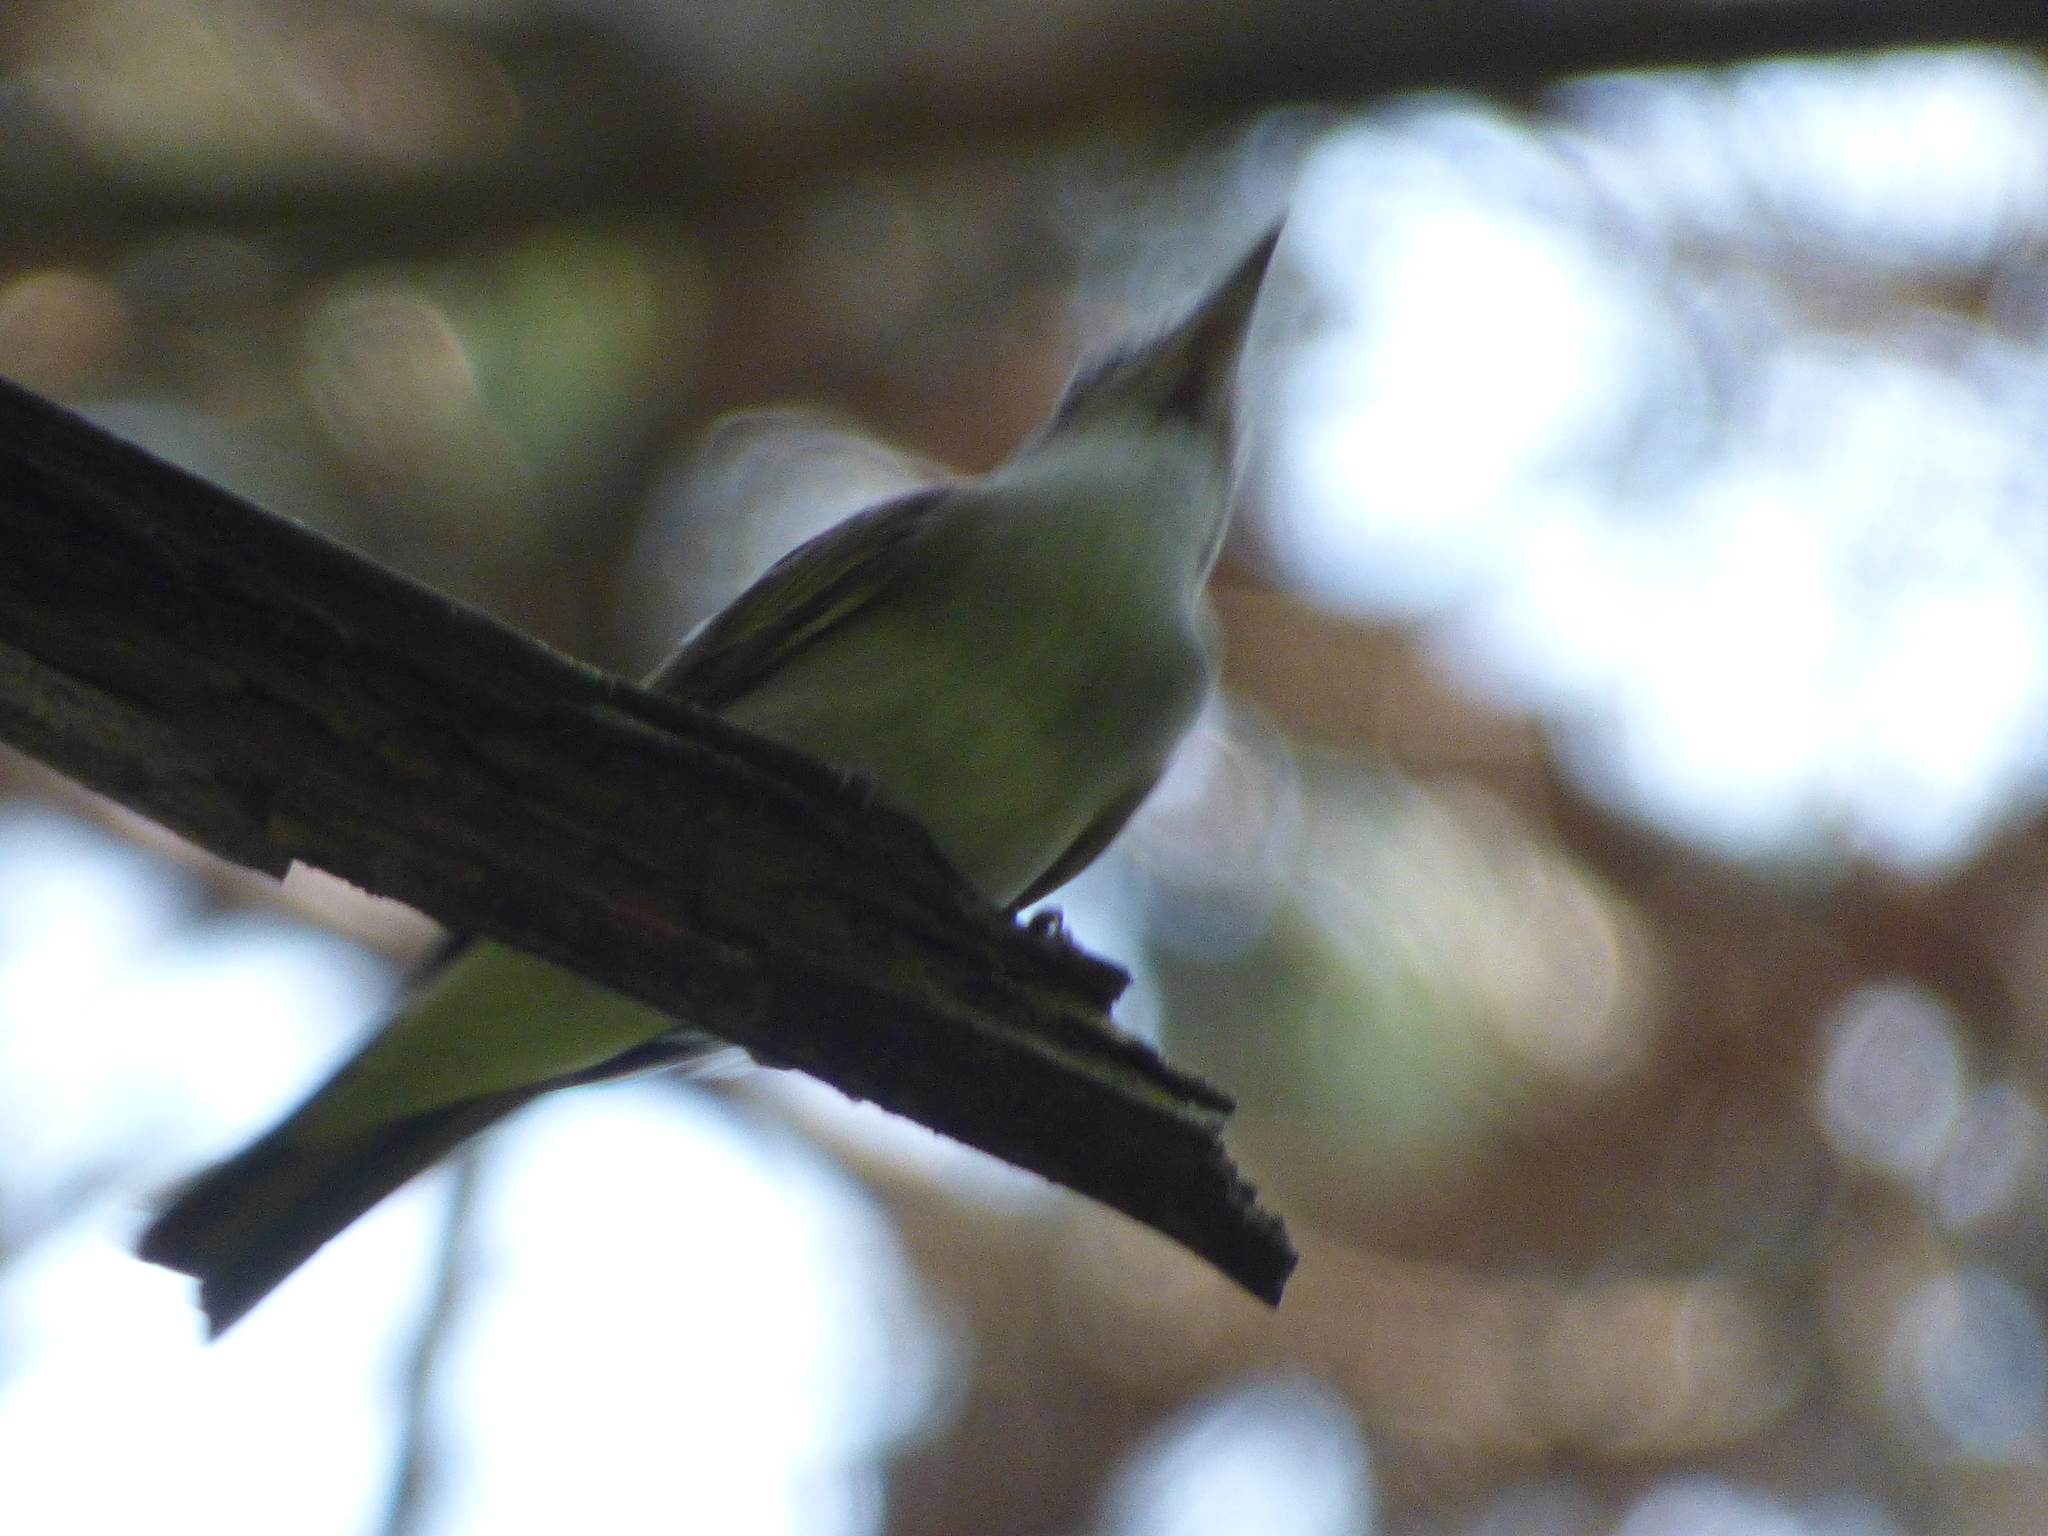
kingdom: Animalia
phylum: Chordata
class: Aves
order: Passeriformes
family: Tyrannidae
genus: Contopus
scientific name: Contopus virens
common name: Eastern wood-pewee
